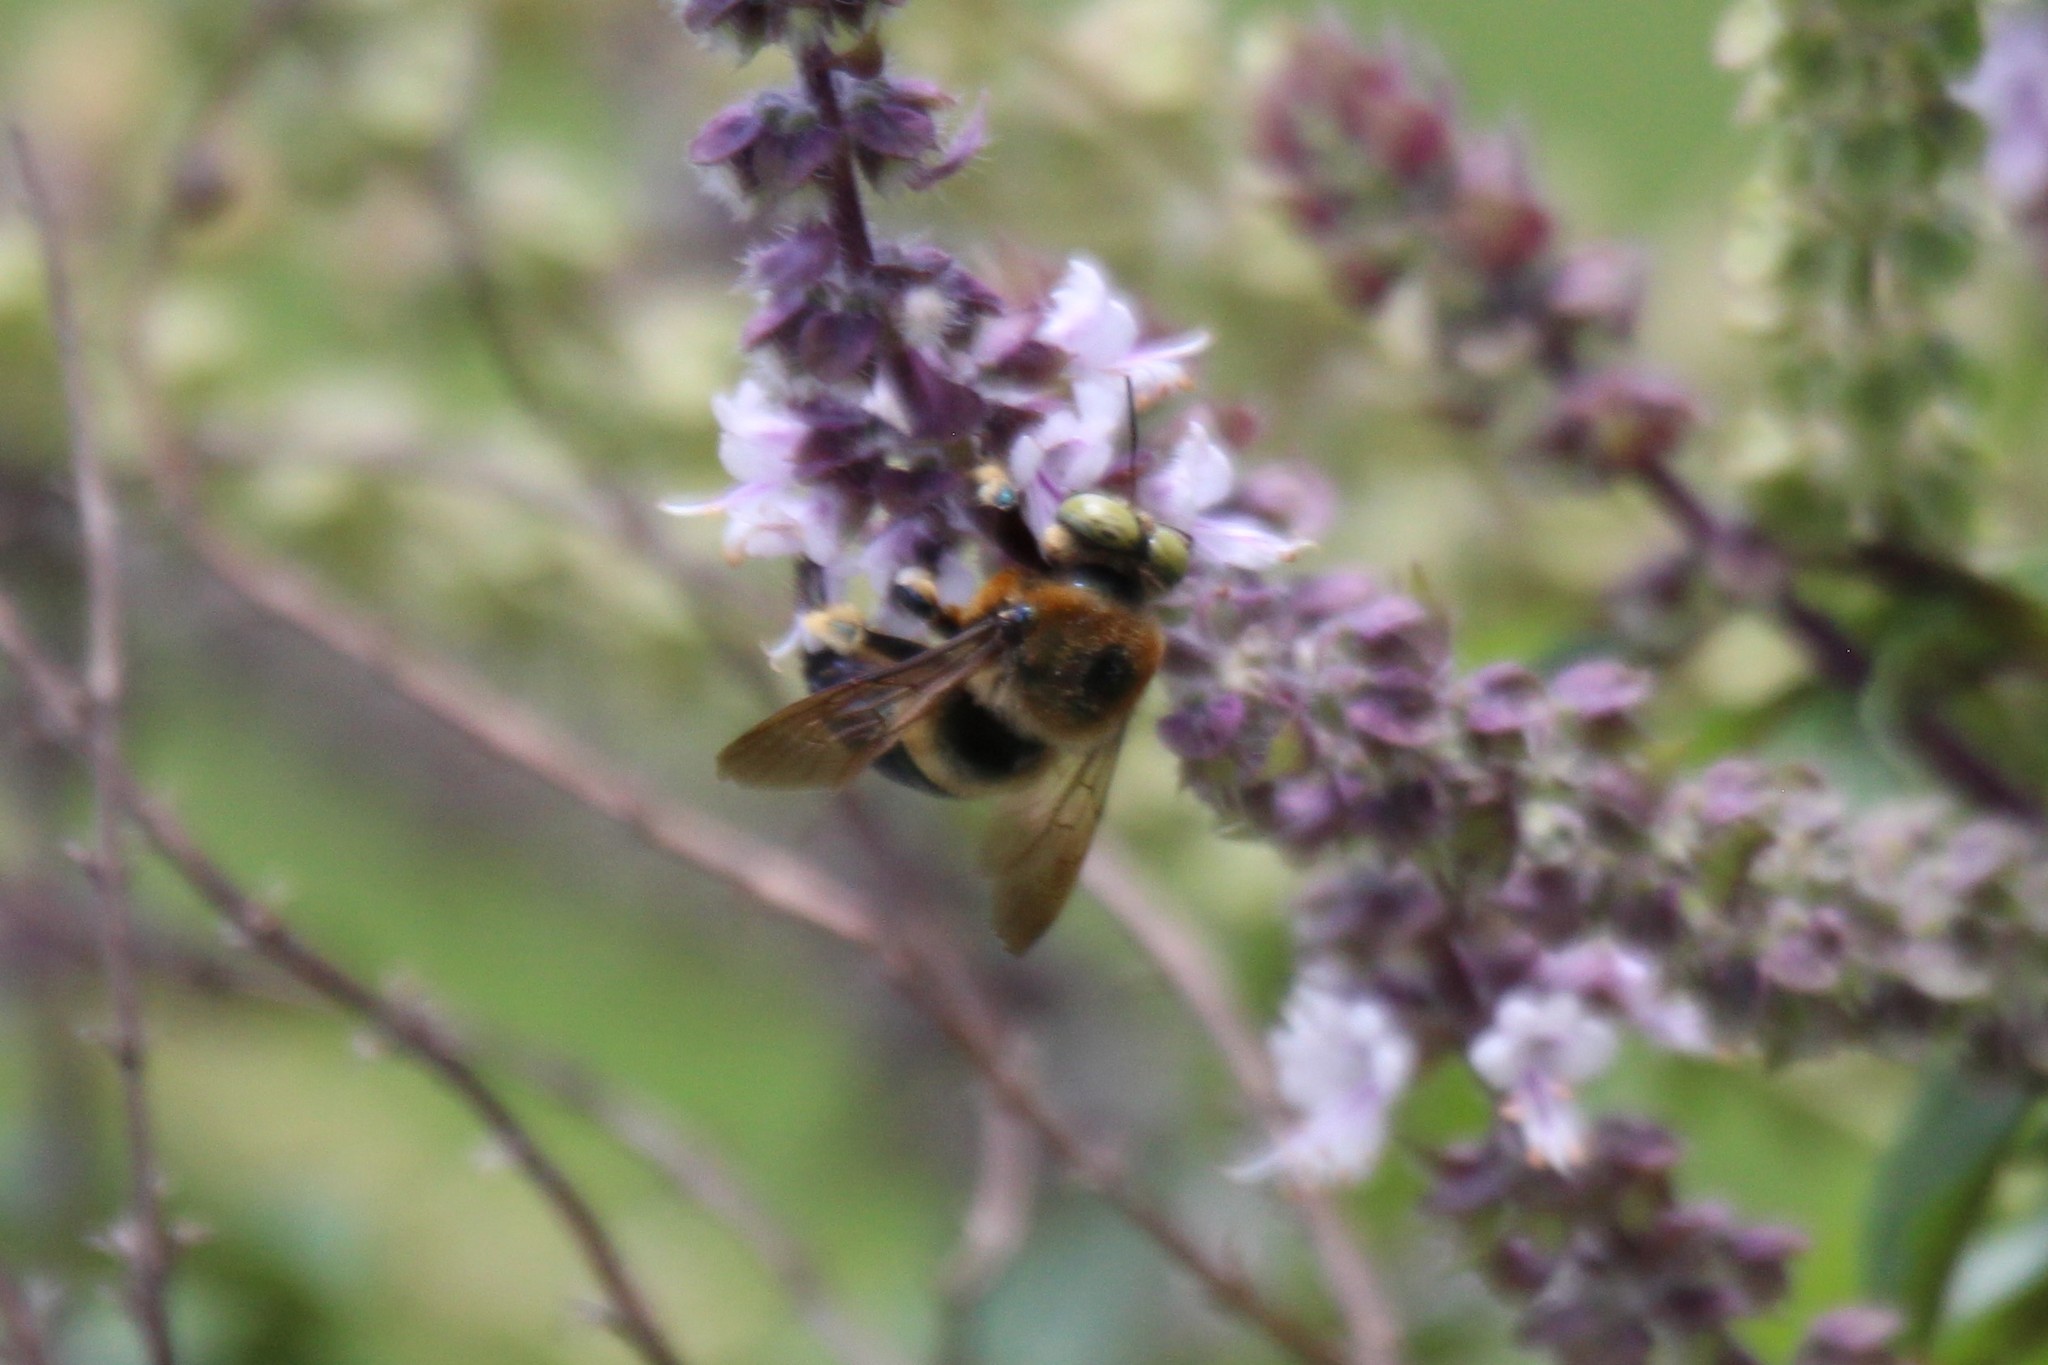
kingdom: Animalia
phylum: Arthropoda
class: Insecta
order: Hymenoptera
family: Apidae
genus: Xylocopa
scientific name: Xylocopa micans
